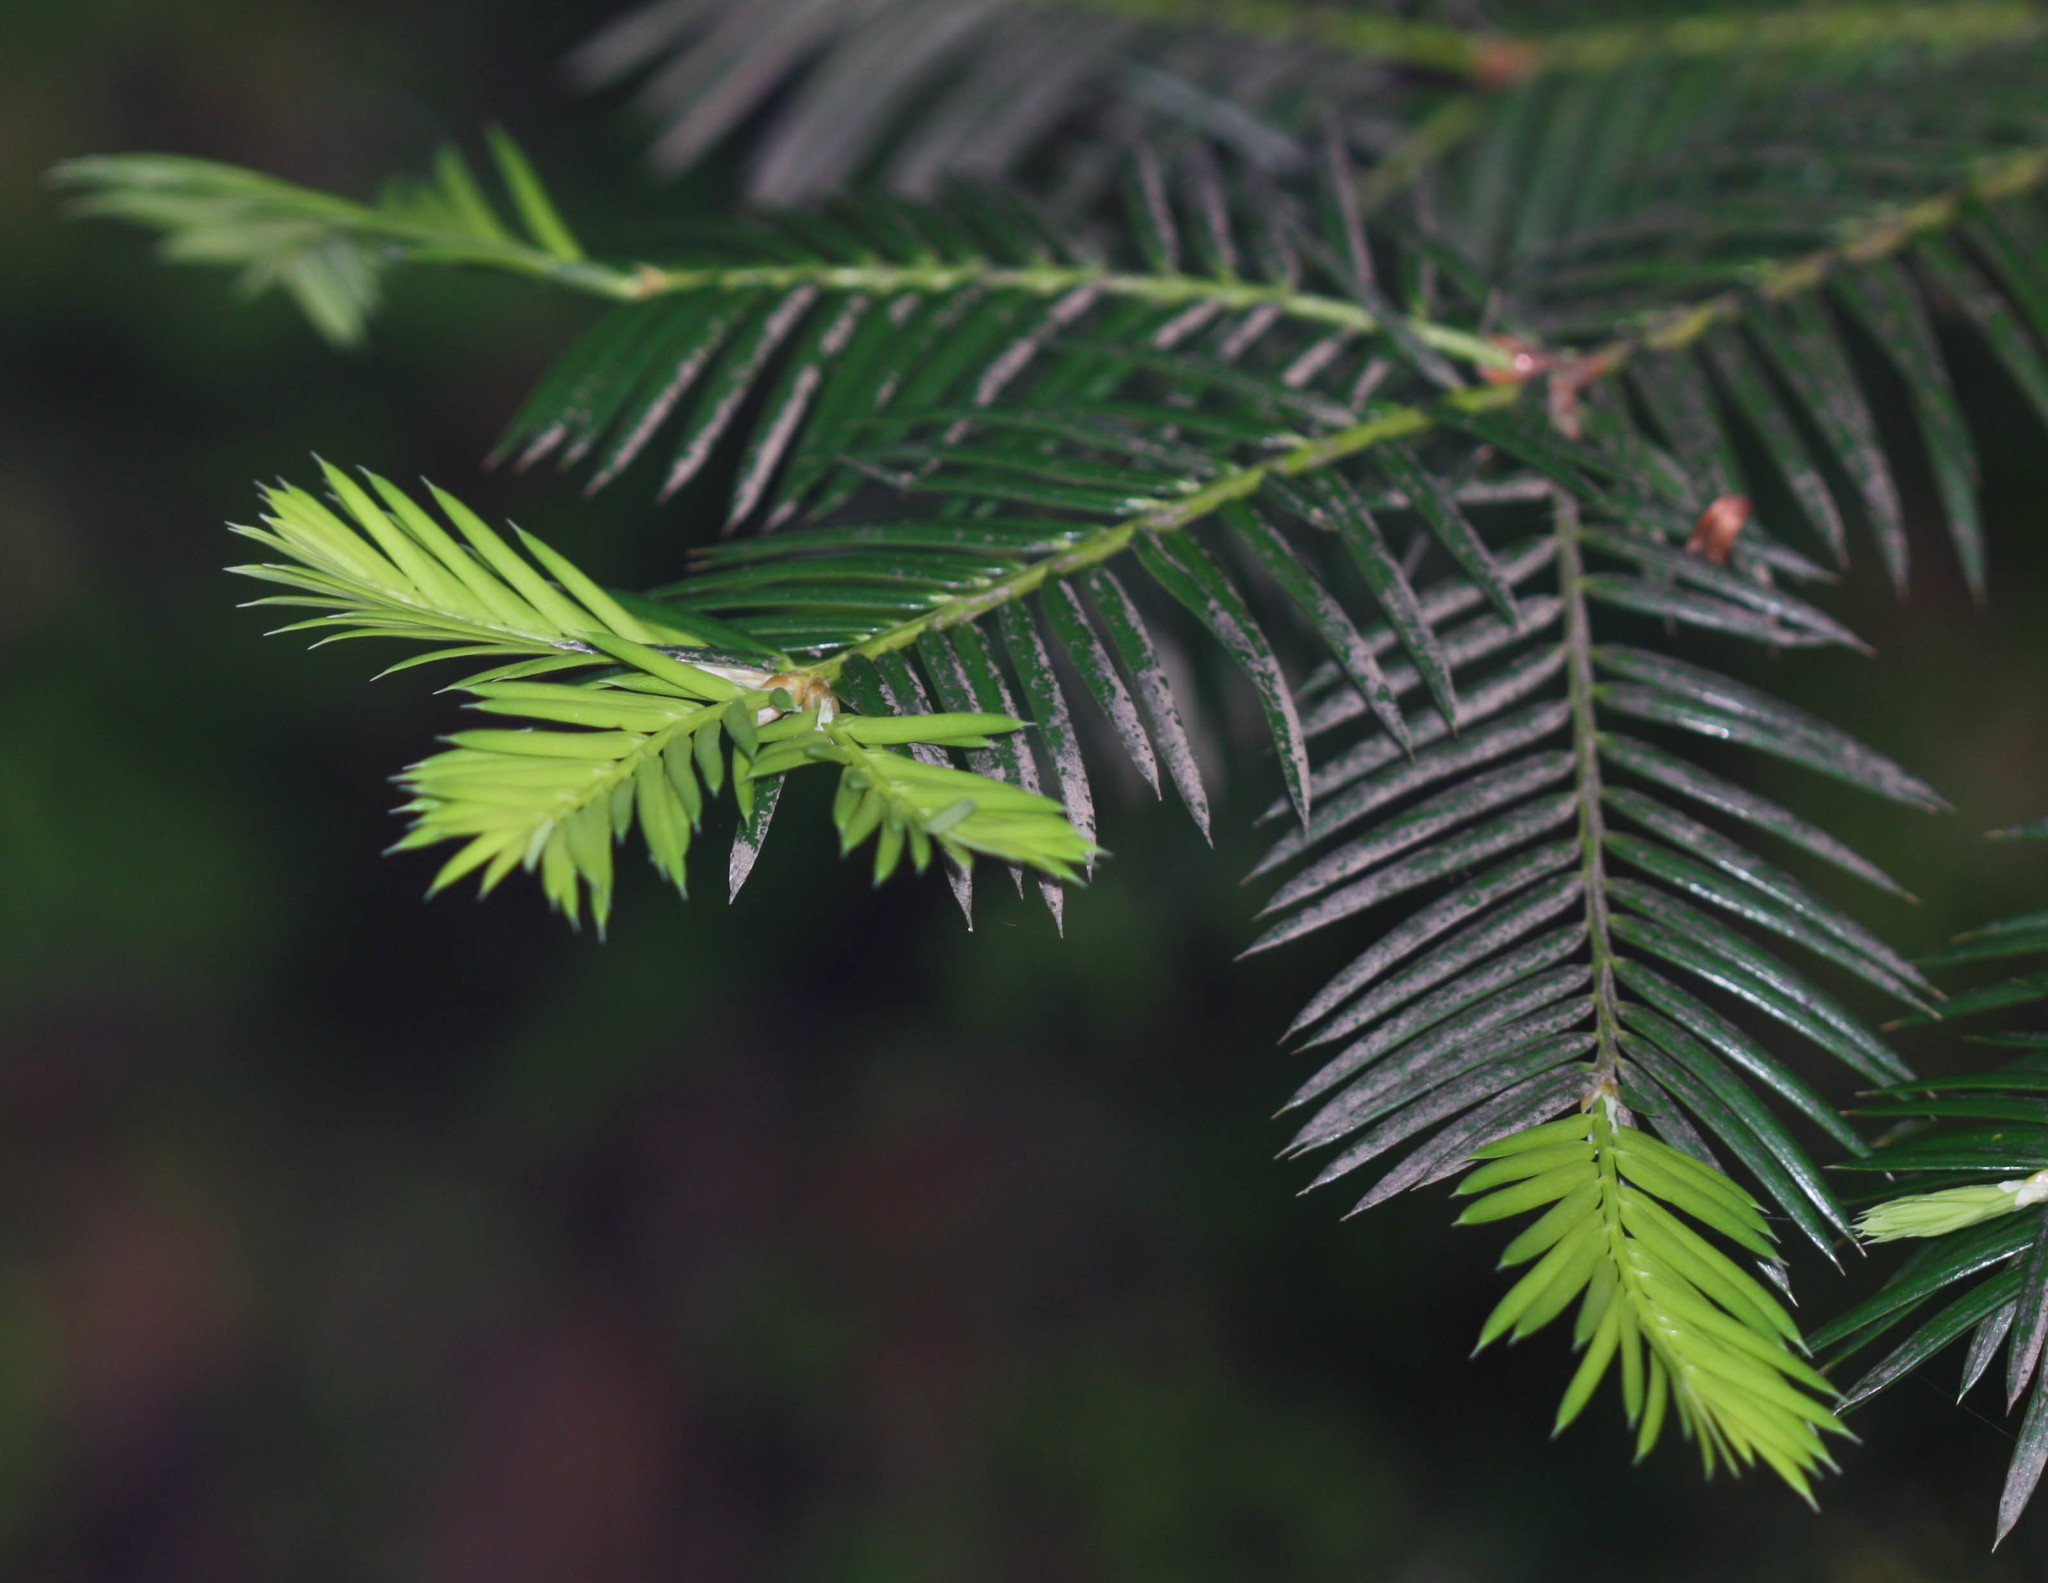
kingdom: Plantae
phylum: Tracheophyta
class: Pinopsida
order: Pinales
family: Taxaceae
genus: Torreya
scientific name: Torreya californica
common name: California torreya
